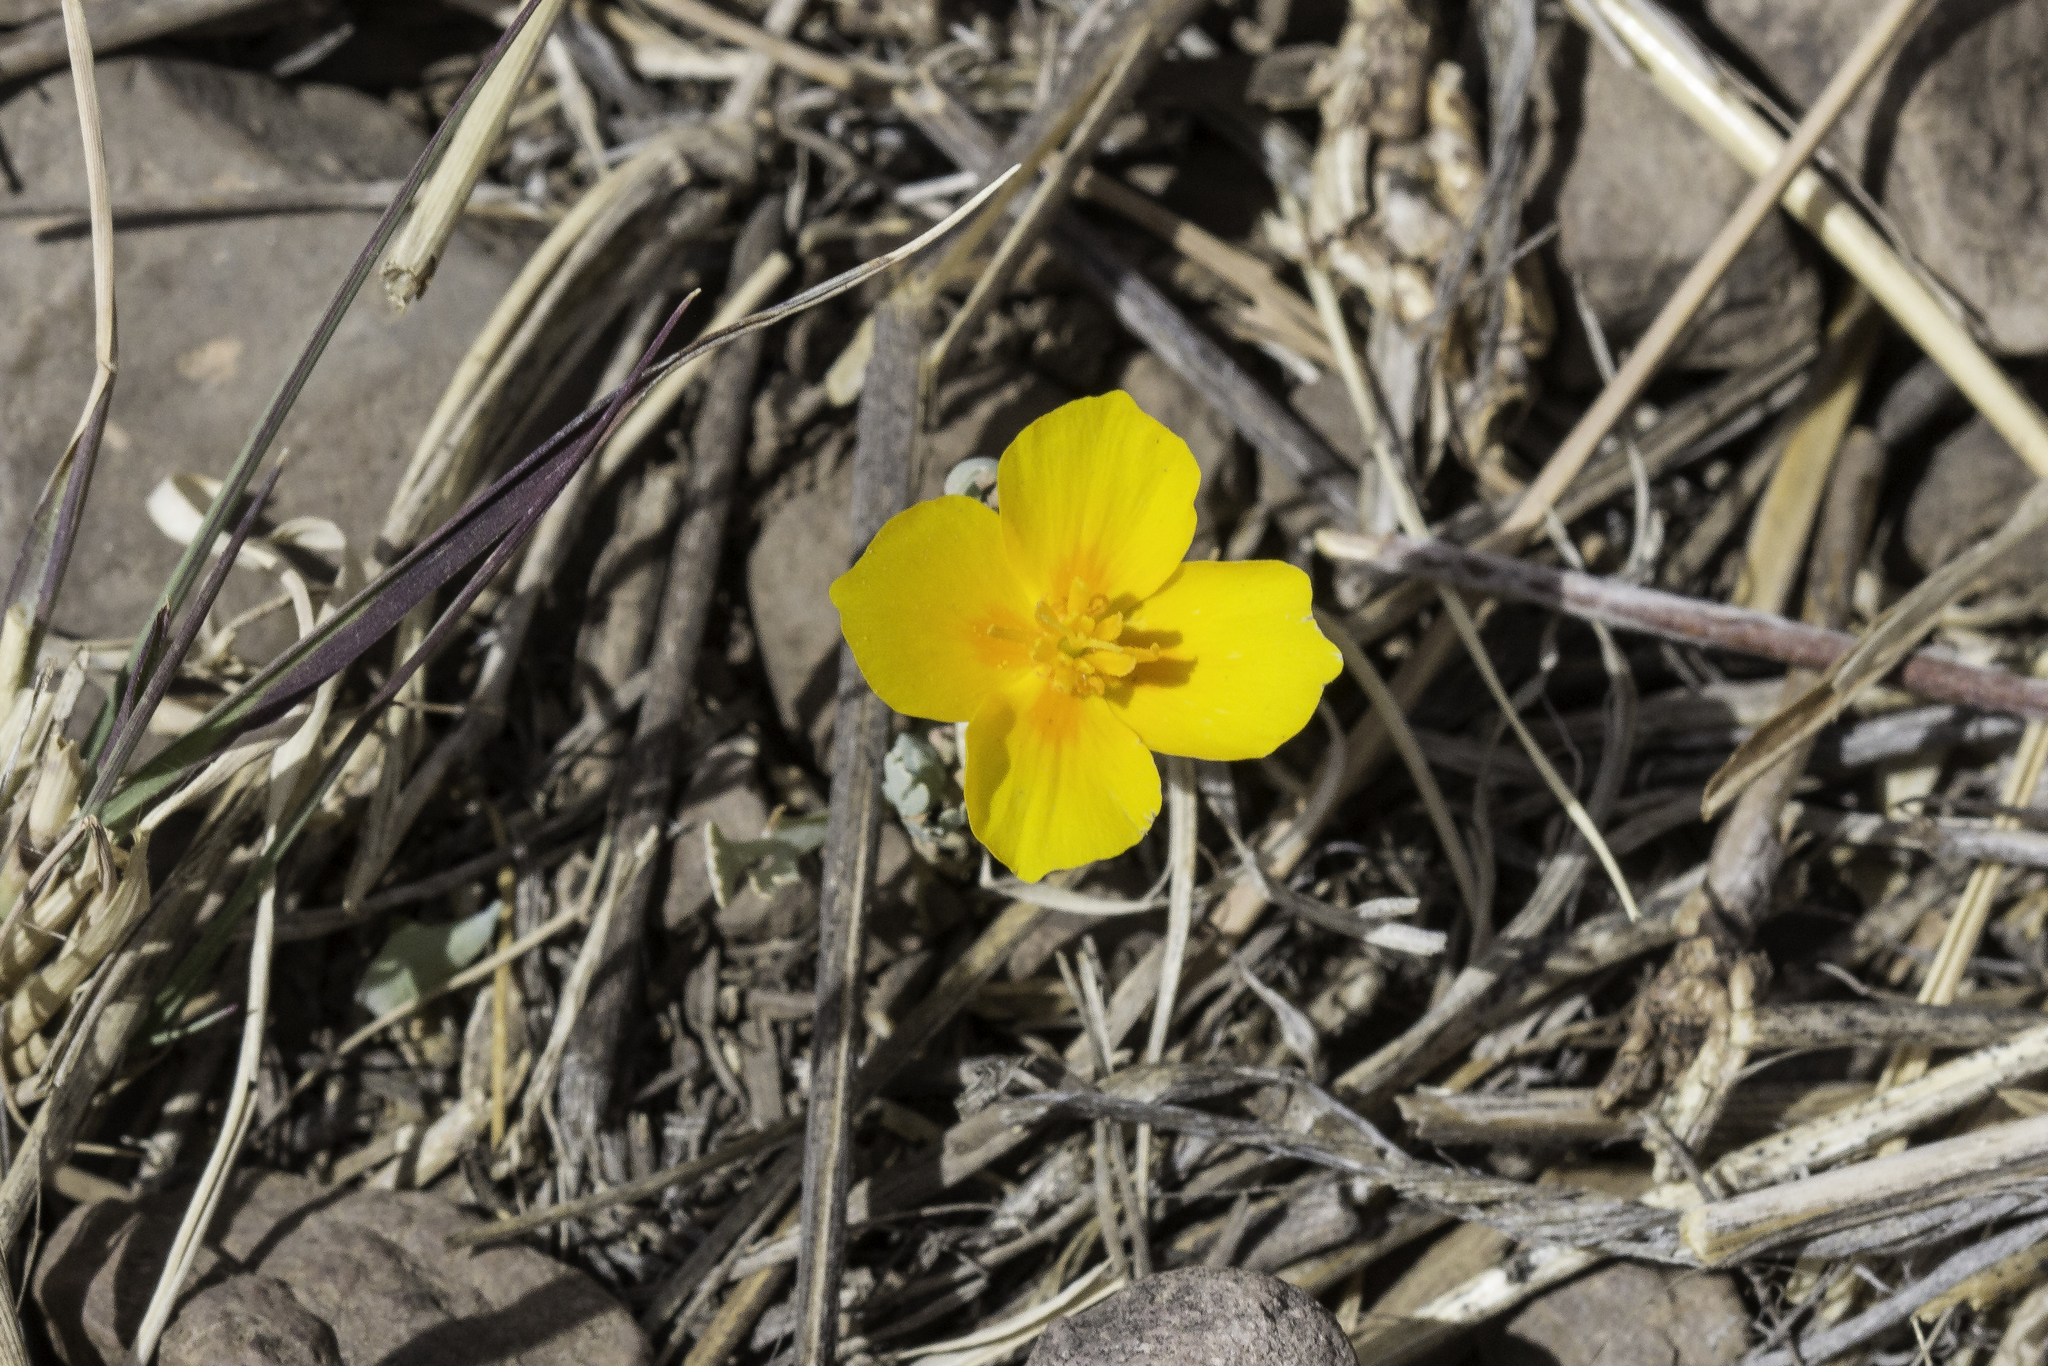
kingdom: Plantae
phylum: Tracheophyta
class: Magnoliopsida
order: Ranunculales
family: Papaveraceae
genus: Eschscholzia
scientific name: Eschscholzia californica
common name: California poppy
